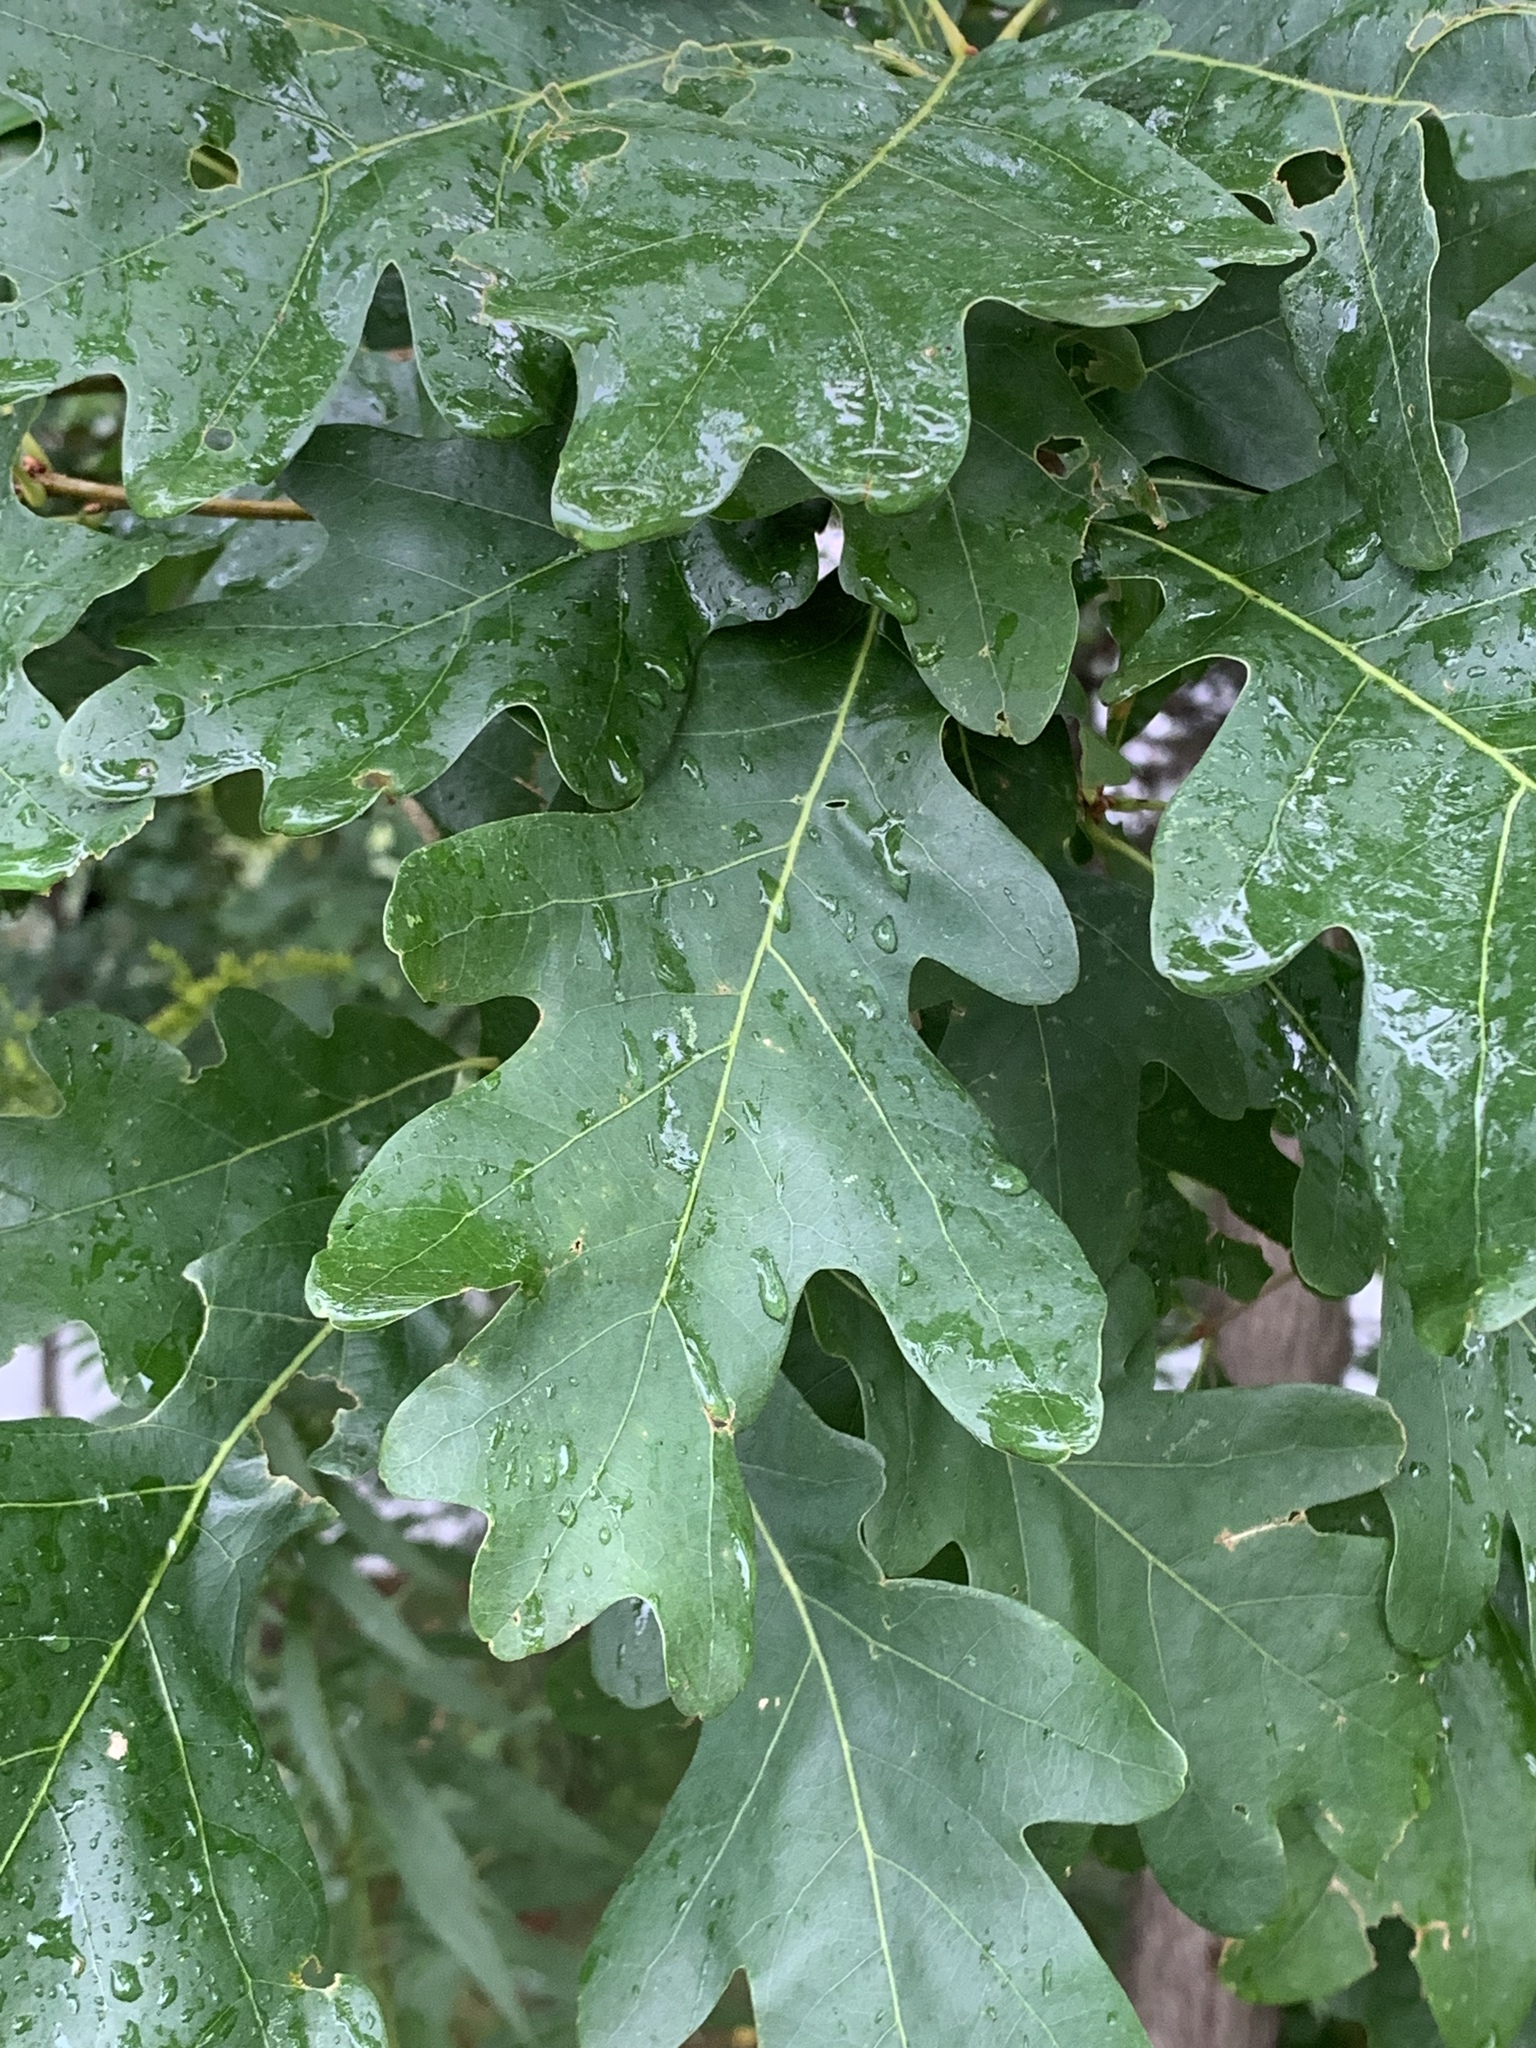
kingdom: Plantae
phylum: Tracheophyta
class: Magnoliopsida
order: Fagales
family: Fagaceae
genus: Quercus
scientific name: Quercus alba
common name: White oak
